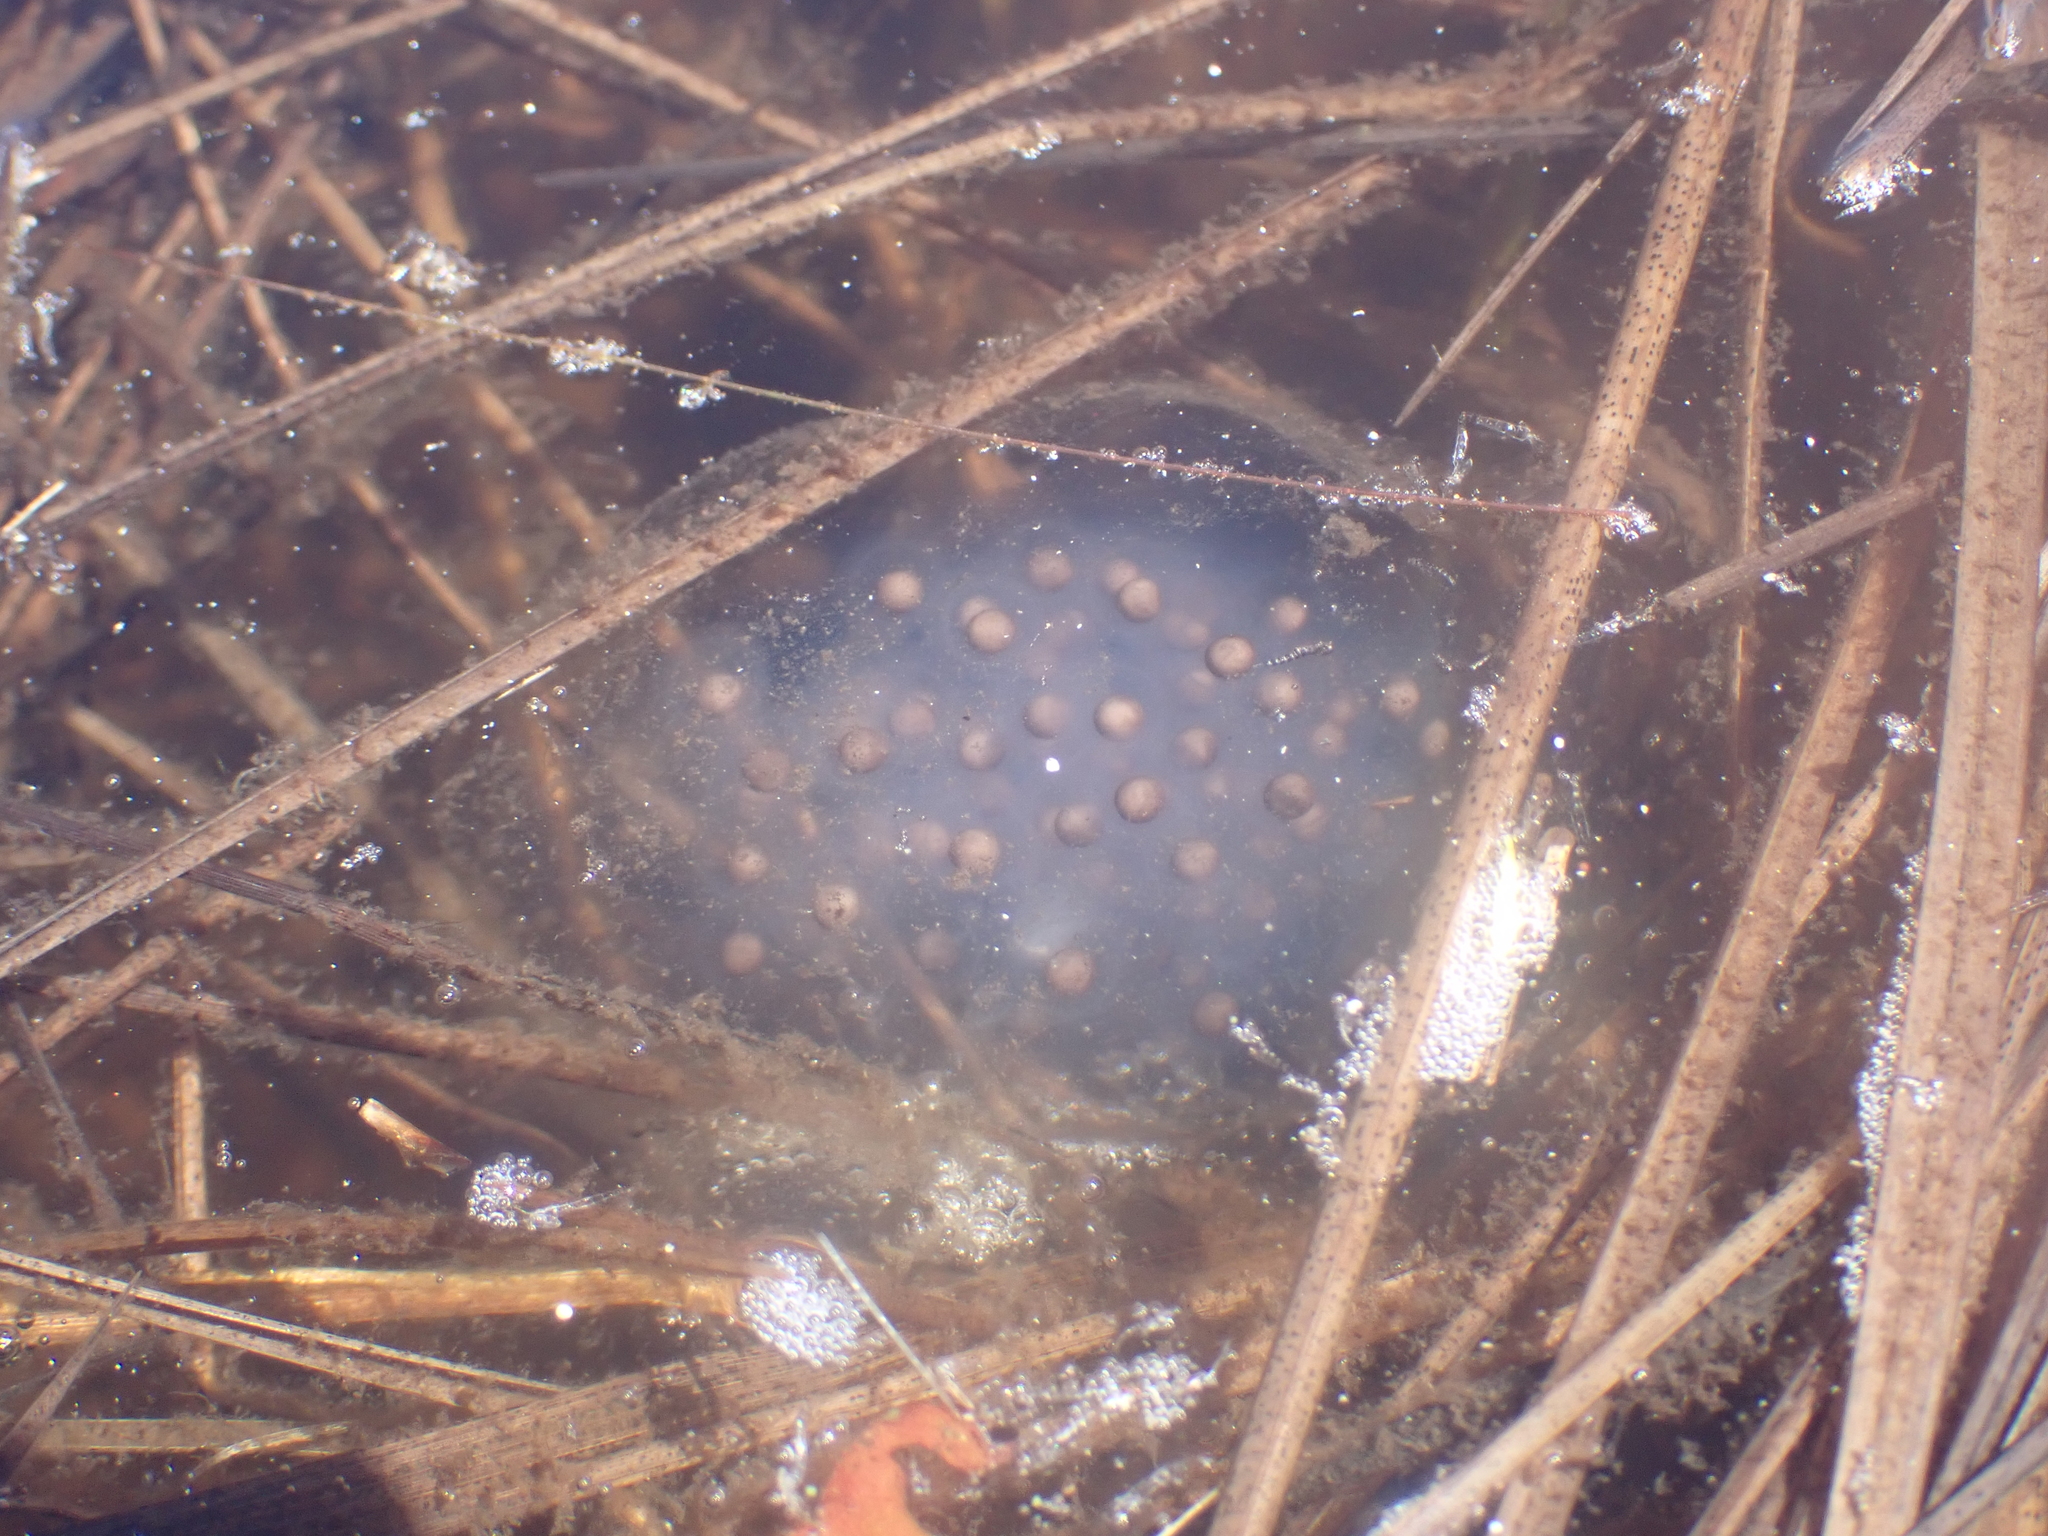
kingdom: Animalia
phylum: Chordata
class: Amphibia
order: Caudata
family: Ambystomatidae
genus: Ambystoma
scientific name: Ambystoma maculatum
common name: Spotted salamander
